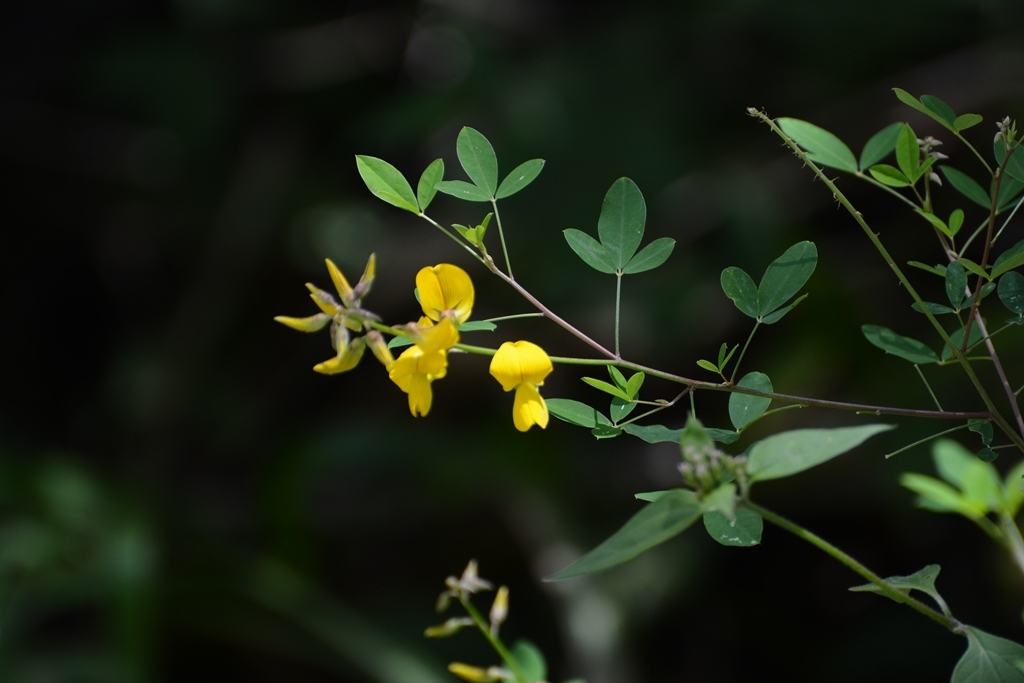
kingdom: Plantae
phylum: Tracheophyta
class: Magnoliopsida
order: Fabales
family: Fabaceae
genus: Crotalaria
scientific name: Crotalaria longirostrata
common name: Longbeak rattlebox
